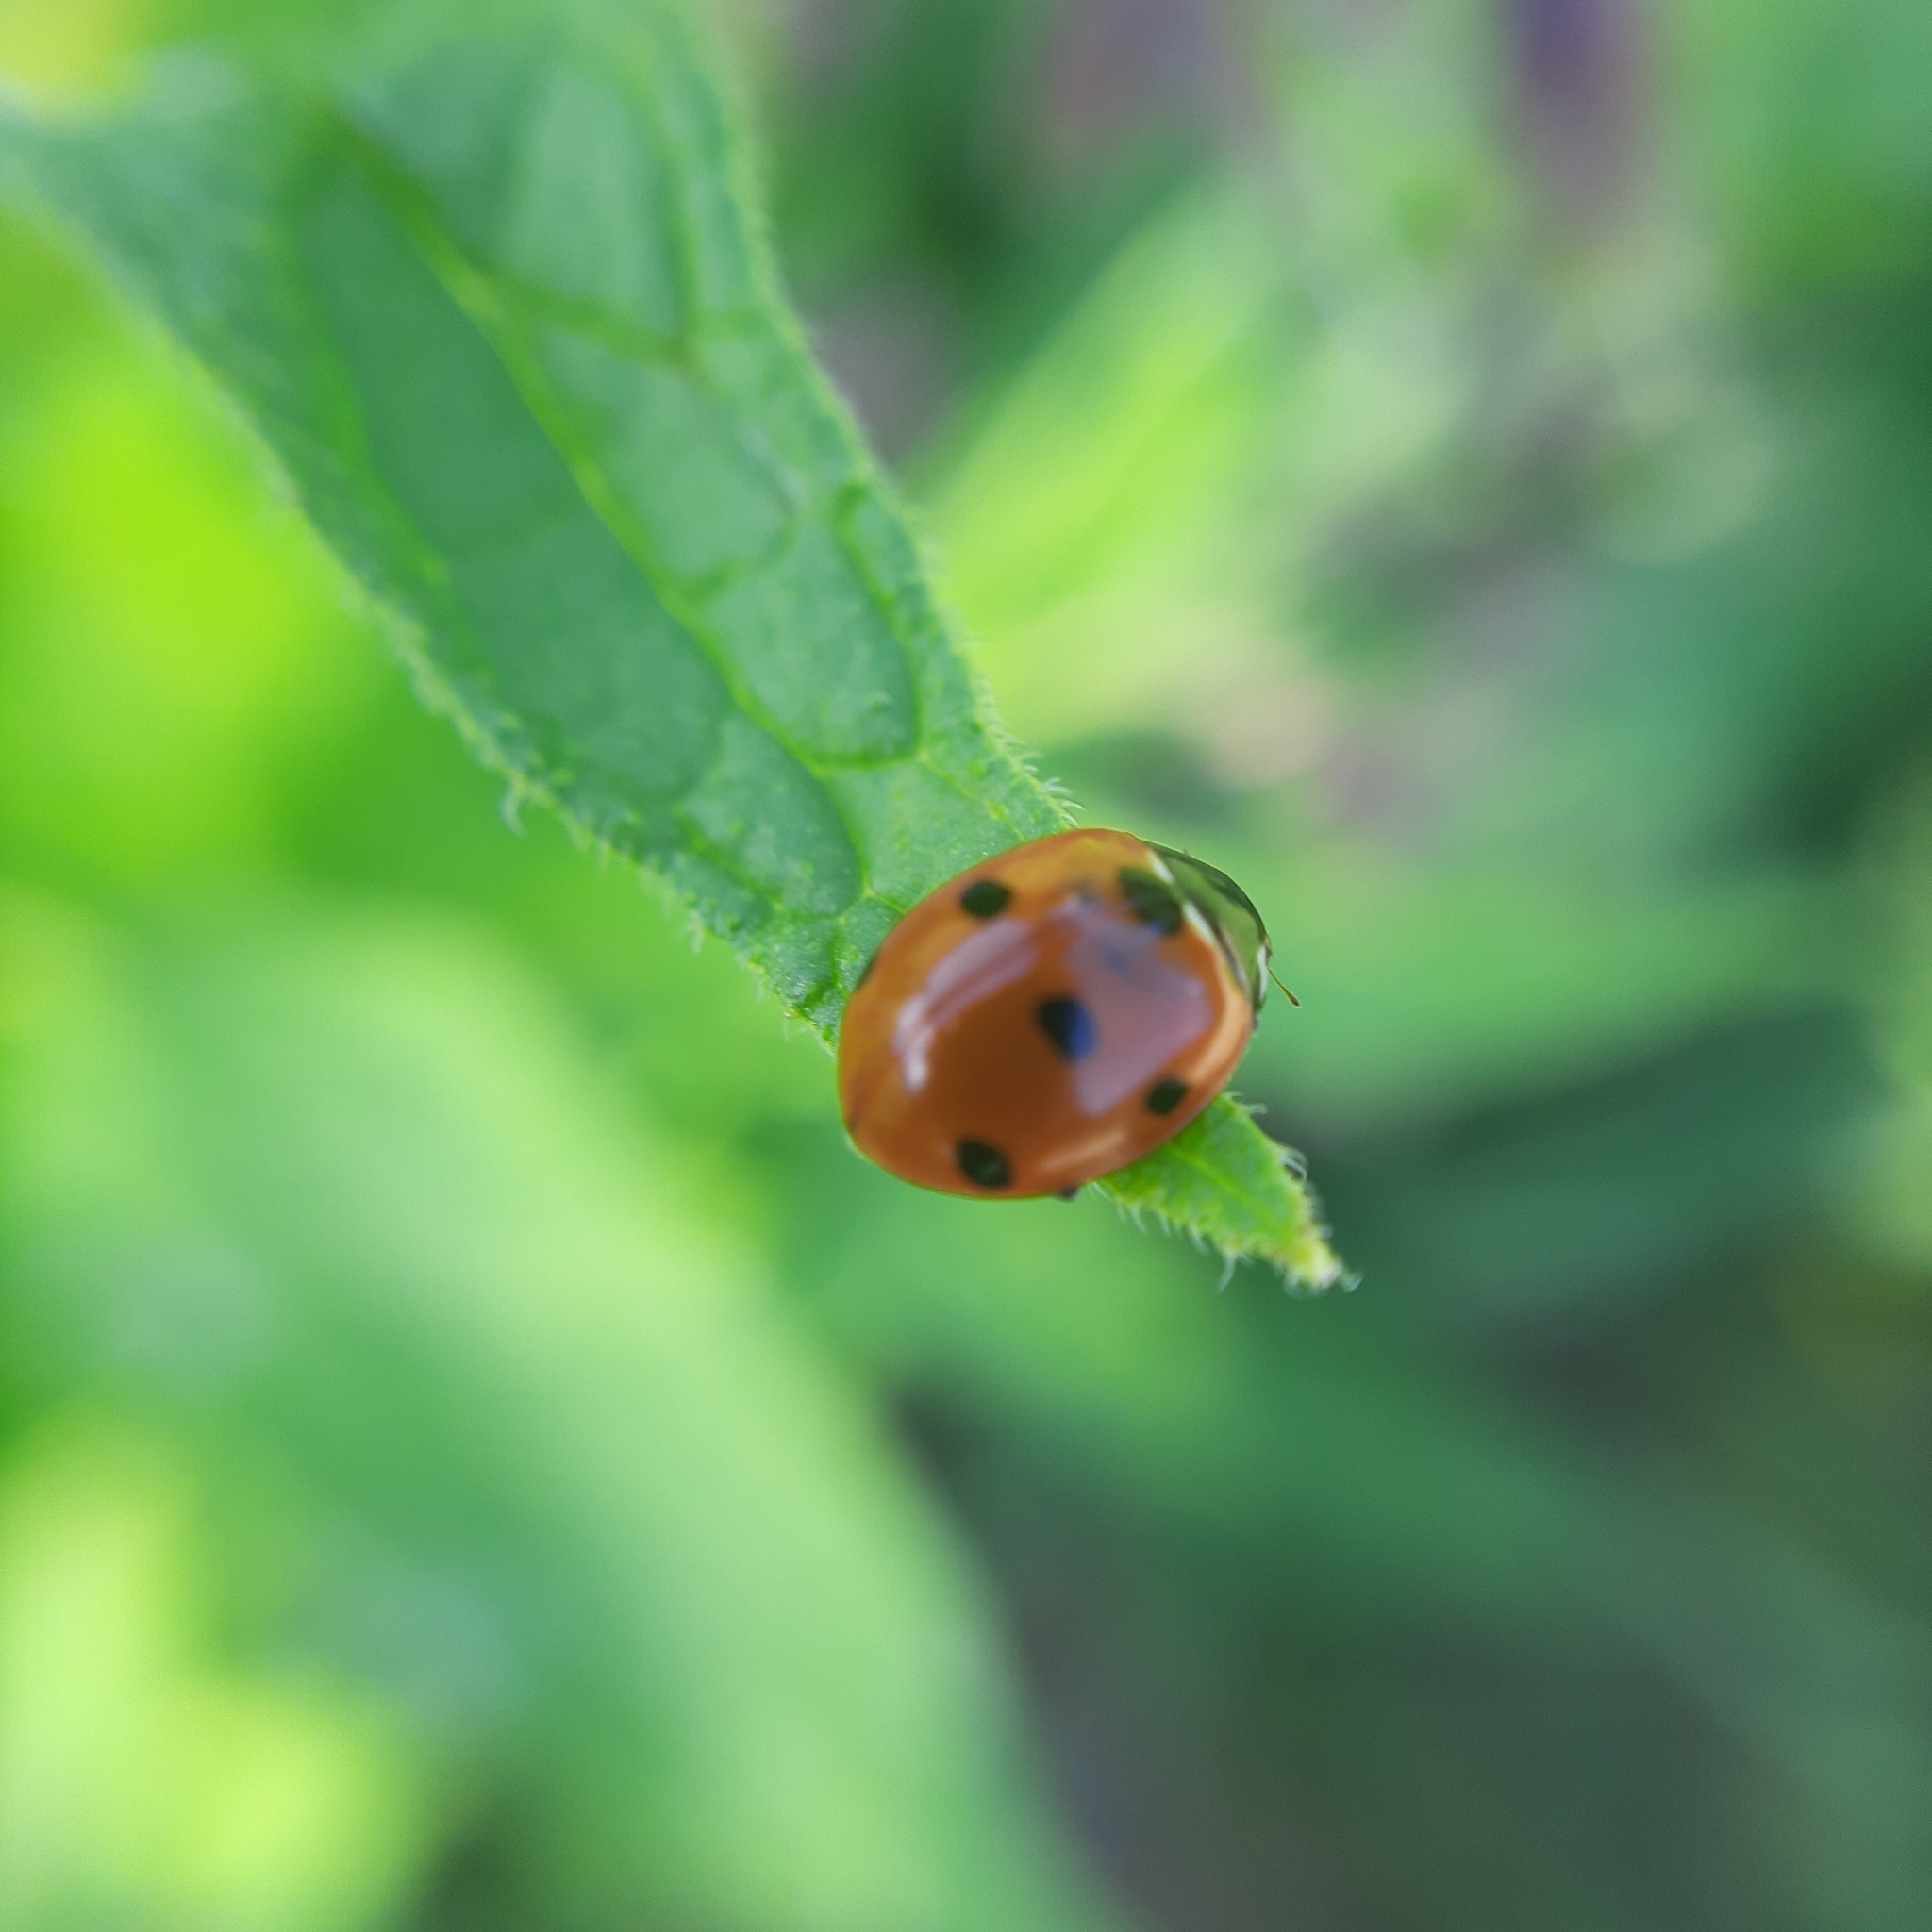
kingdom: Animalia
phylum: Arthropoda
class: Insecta
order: Coleoptera
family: Coccinellidae
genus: Coccinella
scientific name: Coccinella septempunctata
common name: Sevenspotted lady beetle
